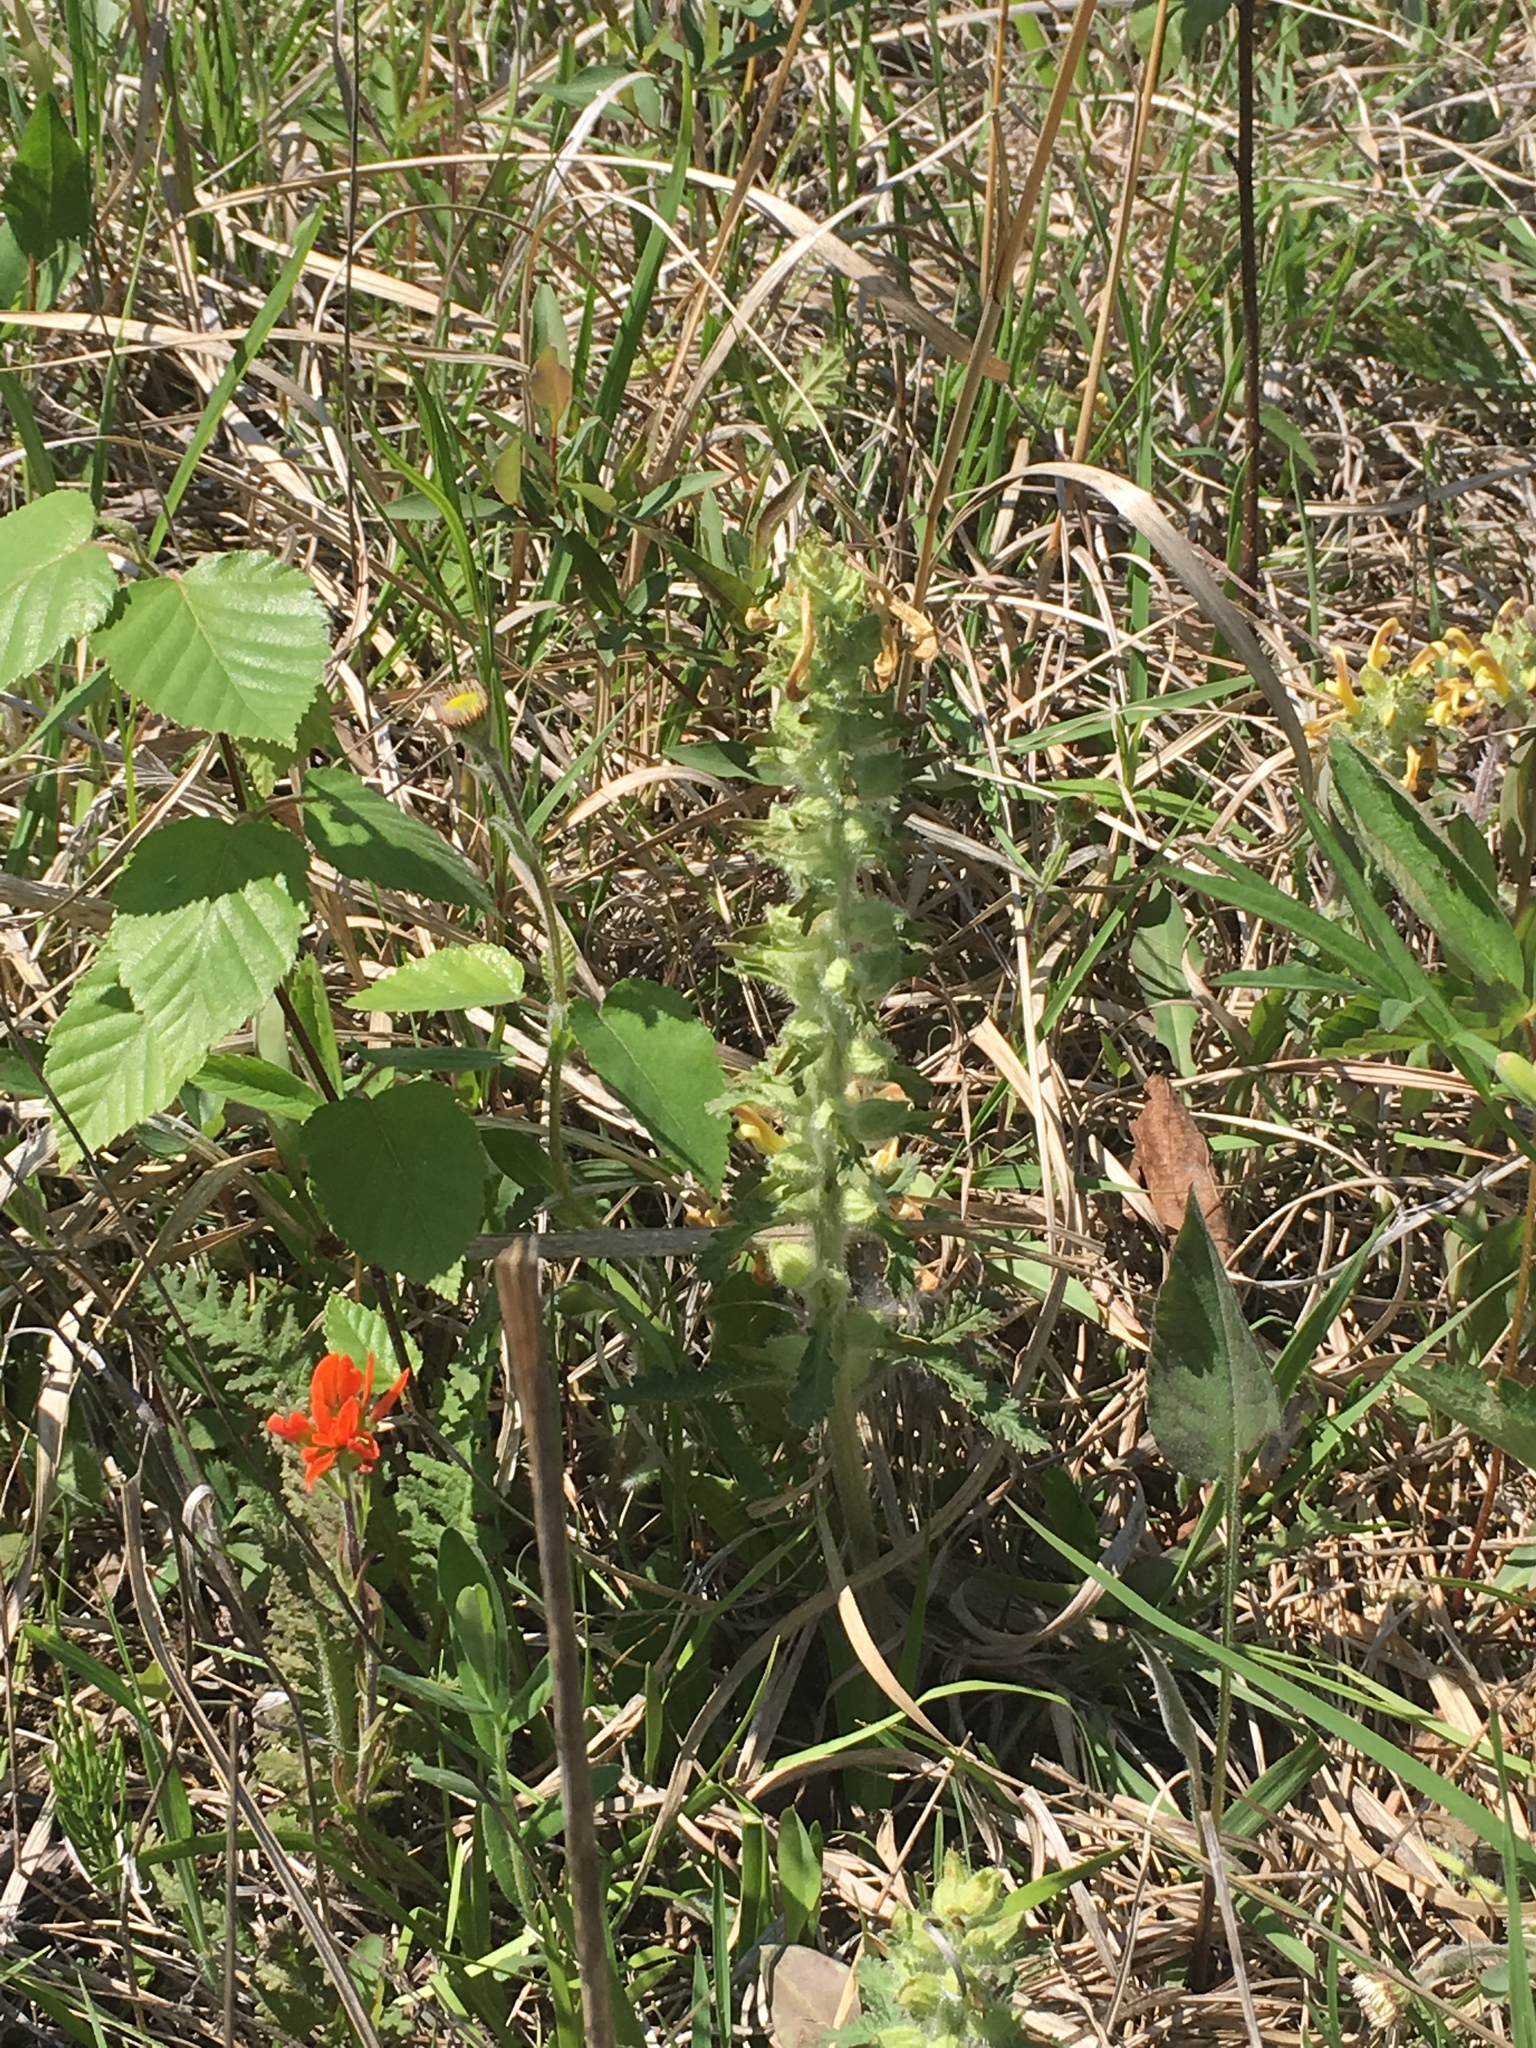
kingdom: Plantae
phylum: Tracheophyta
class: Magnoliopsida
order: Lamiales
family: Orobanchaceae
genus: Pedicularis
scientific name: Pedicularis canadensis
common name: Early lousewort
